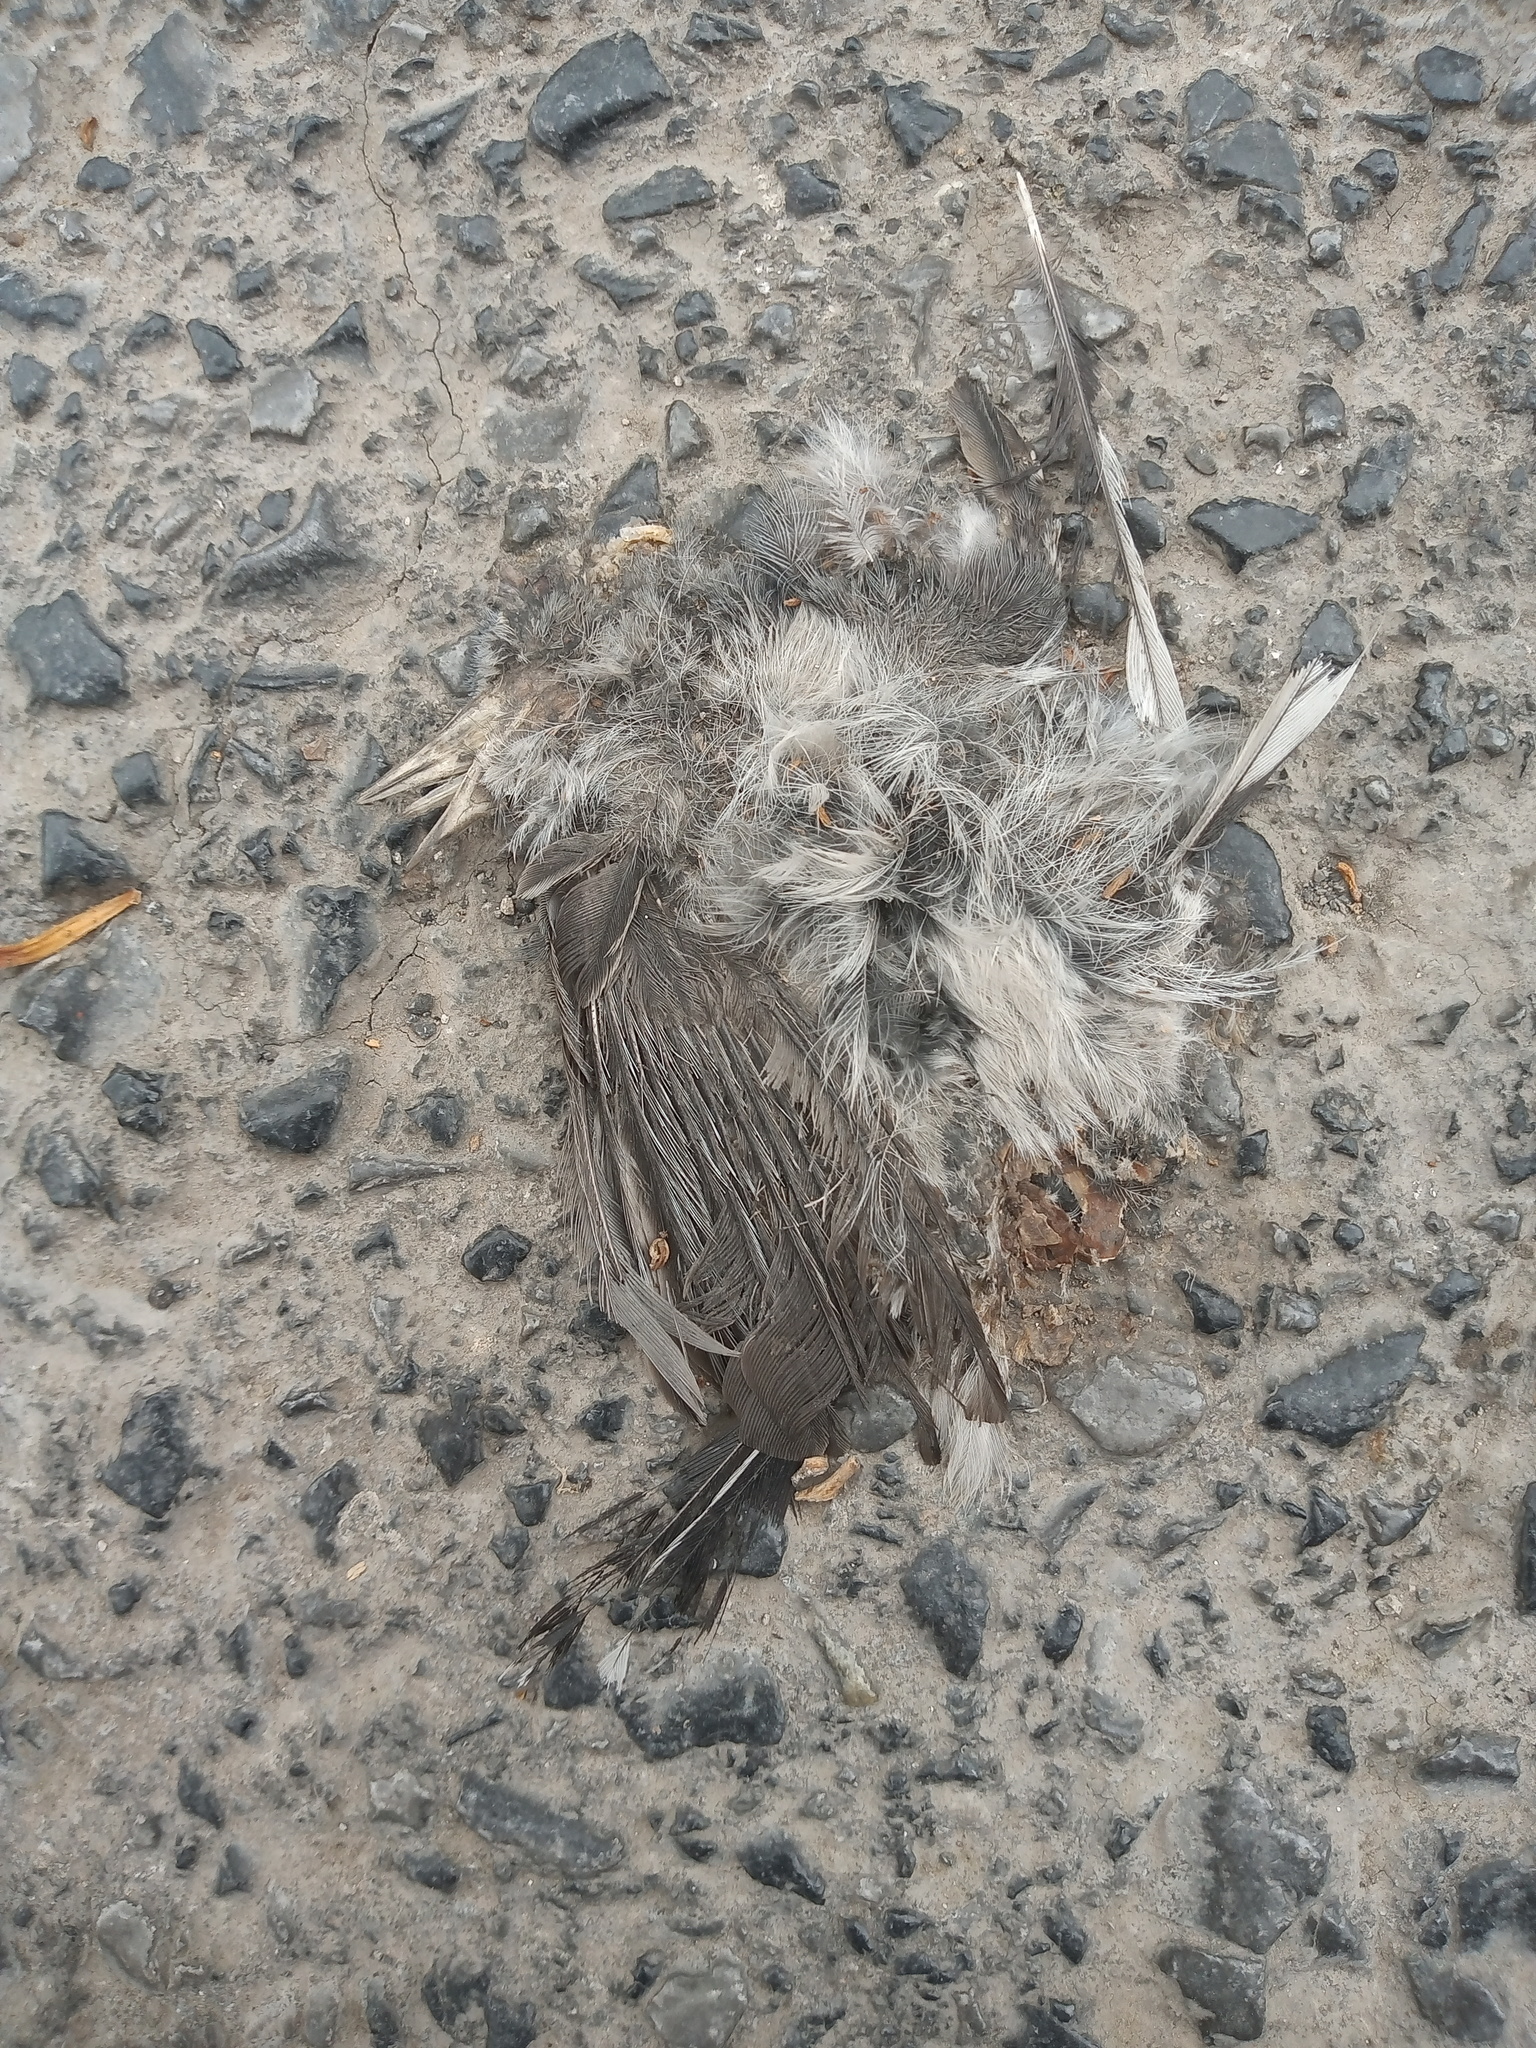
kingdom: Animalia
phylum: Chordata
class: Aves
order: Passeriformes
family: Mimidae
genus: Mimus
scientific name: Mimus polyglottos
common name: Northern mockingbird
